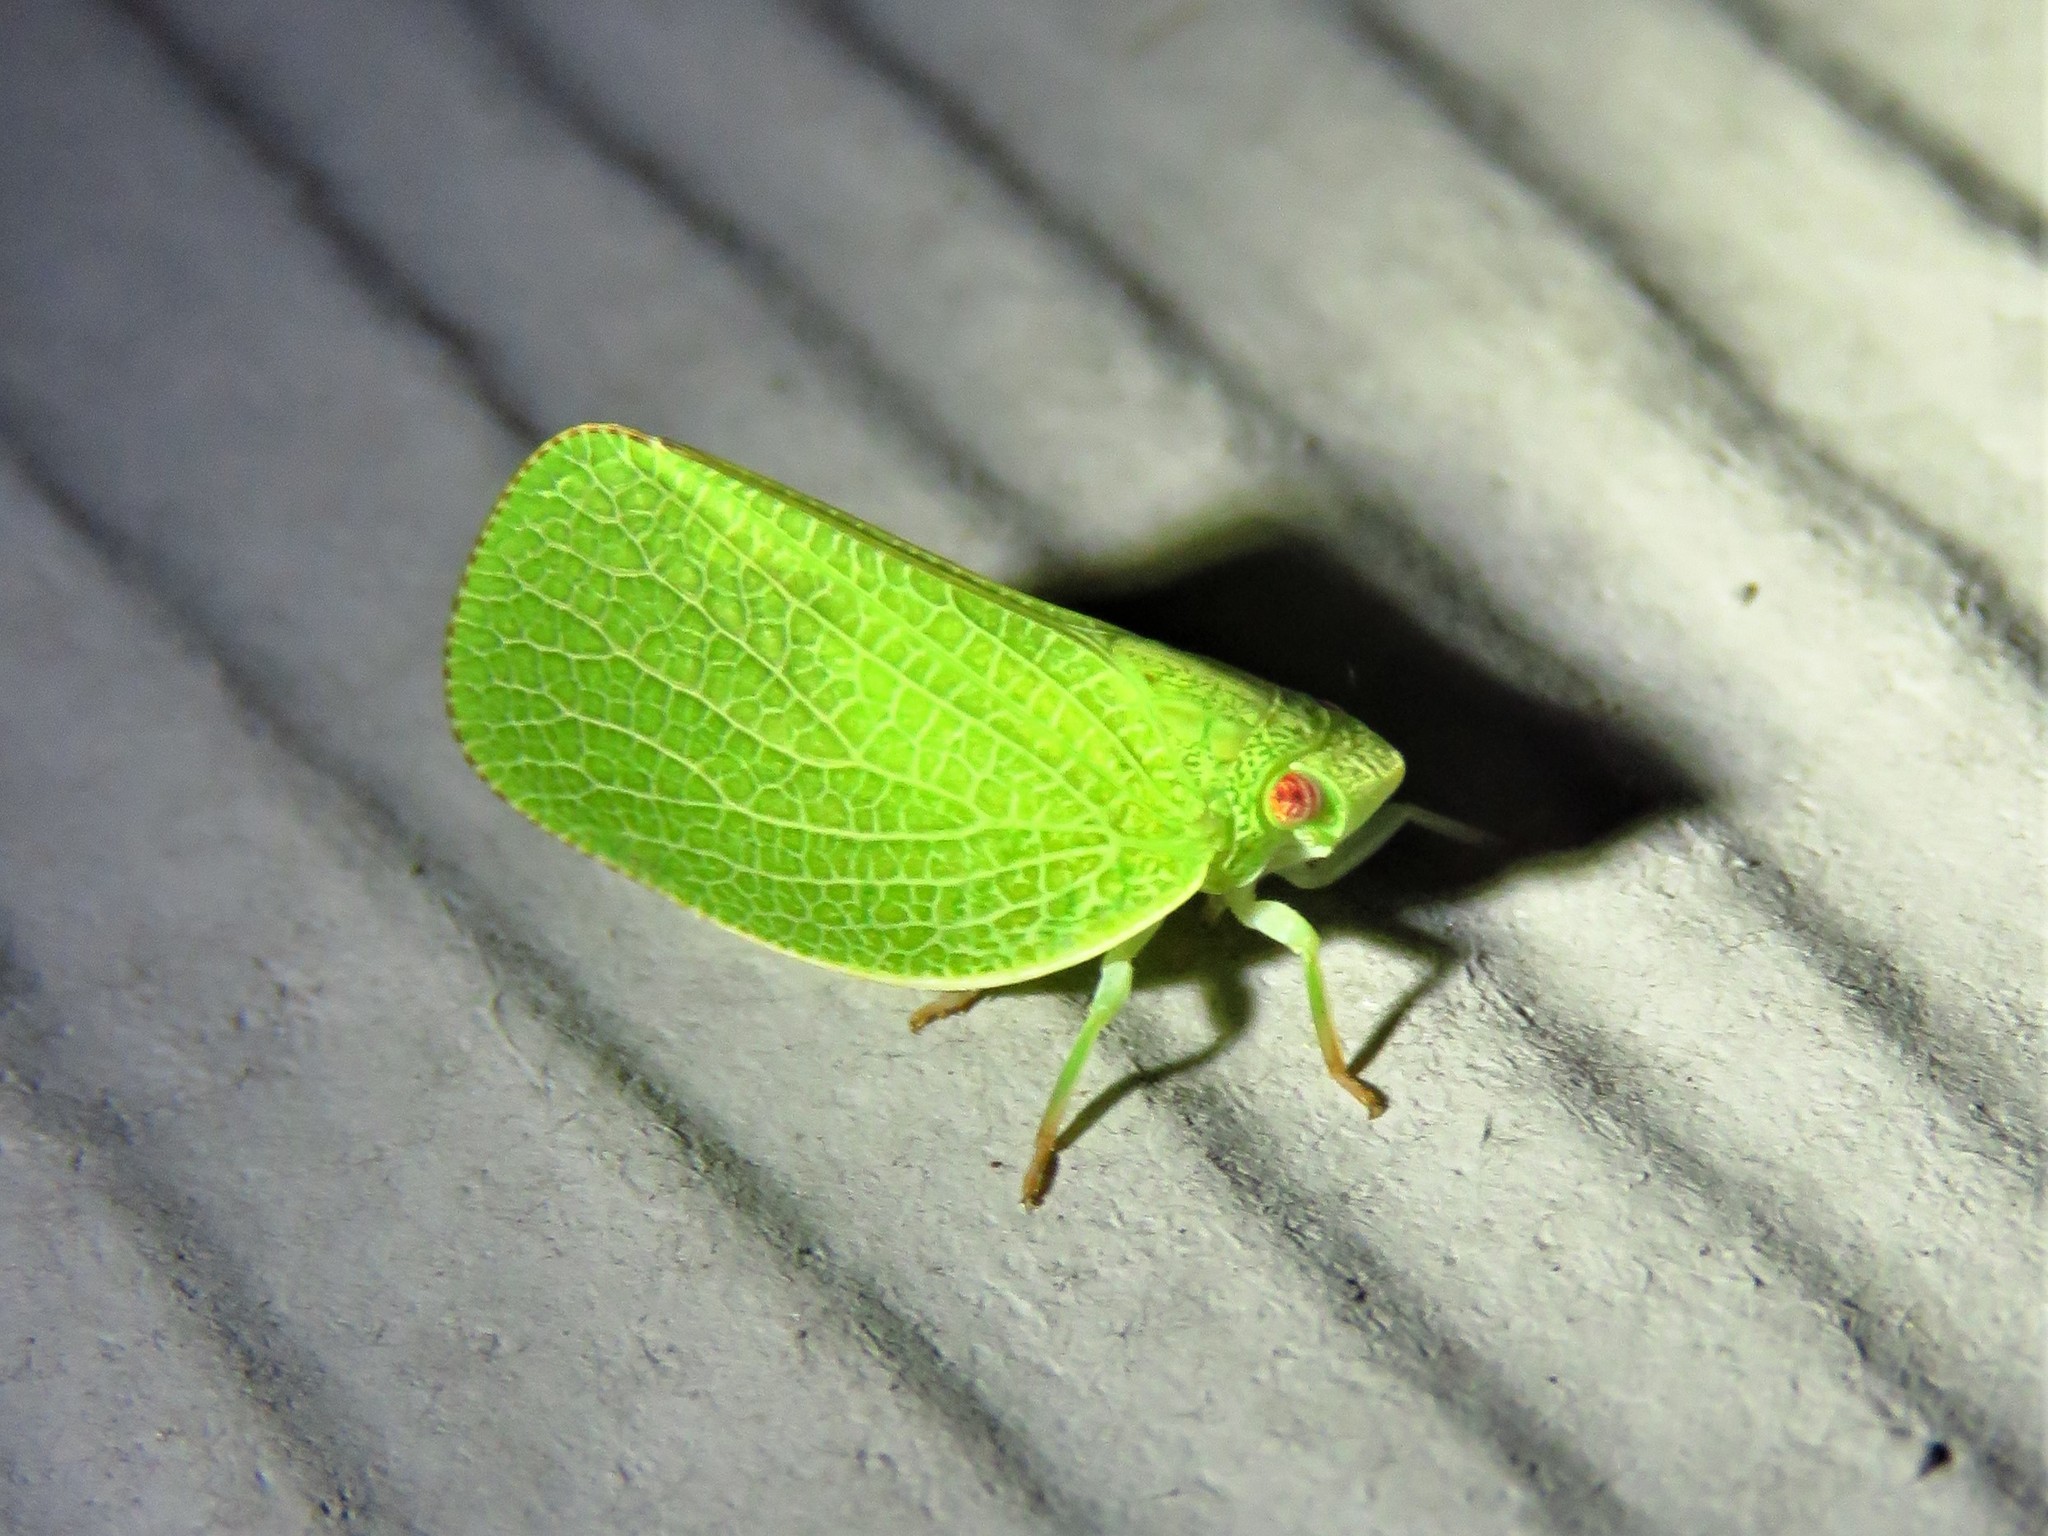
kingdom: Animalia
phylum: Arthropoda
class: Insecta
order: Hemiptera
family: Acanaloniidae
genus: Acanalonia
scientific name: Acanalonia conica
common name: Green cone-headed planthopper
